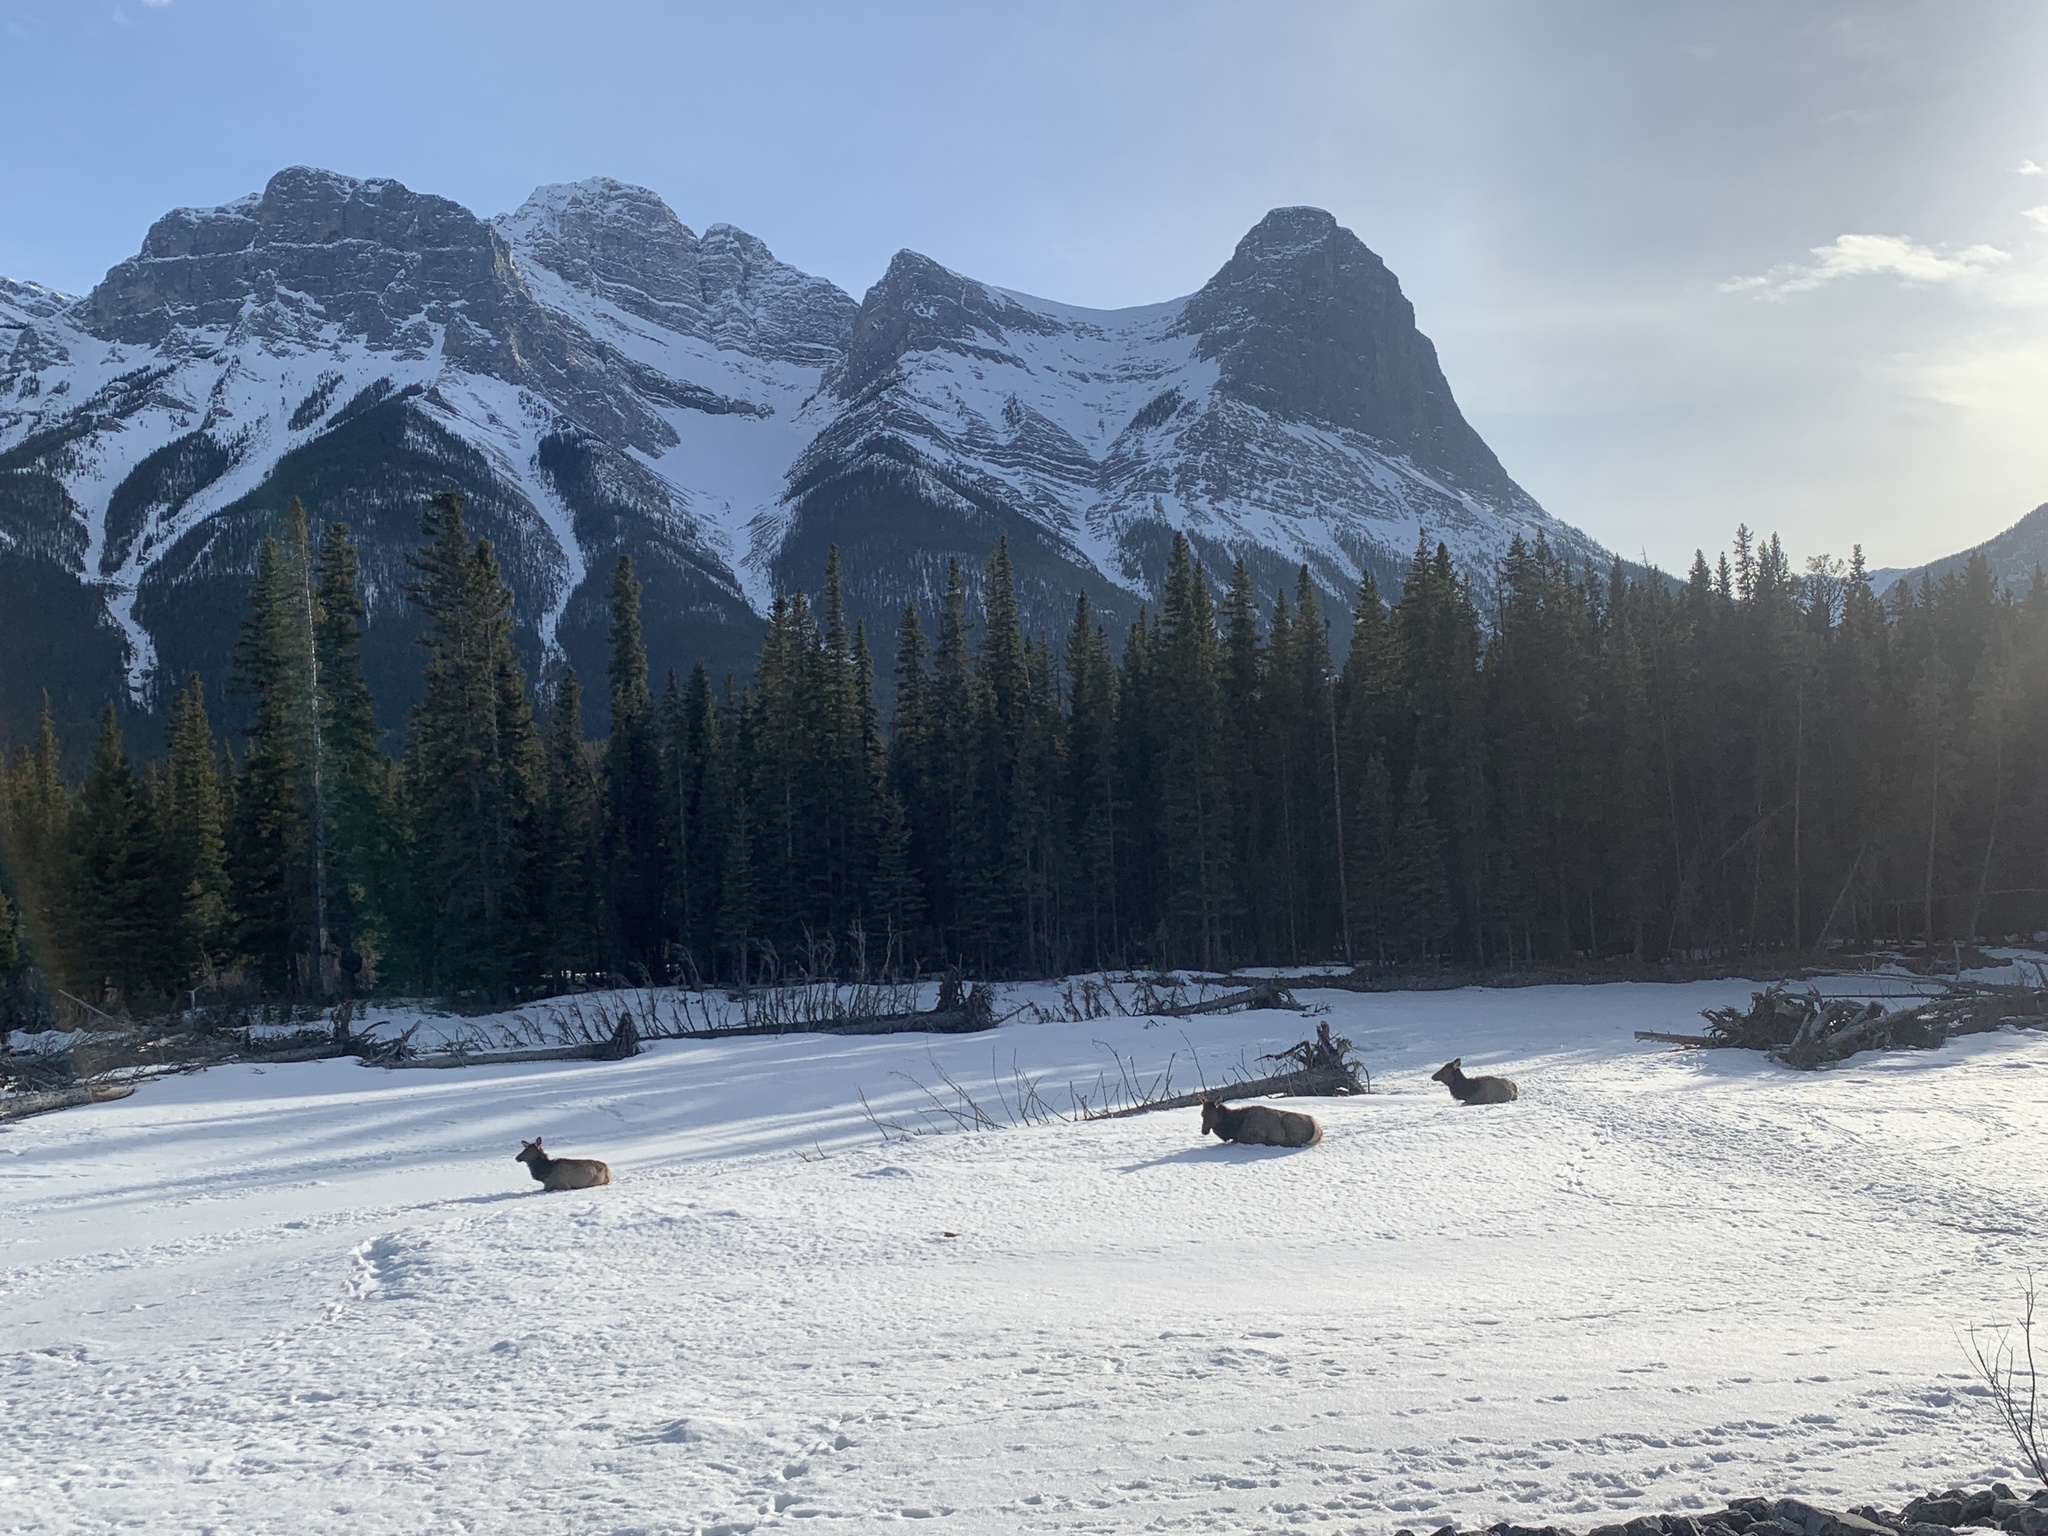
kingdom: Animalia
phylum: Chordata
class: Mammalia
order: Artiodactyla
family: Cervidae
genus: Cervus
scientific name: Cervus elaphus
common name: Red deer
